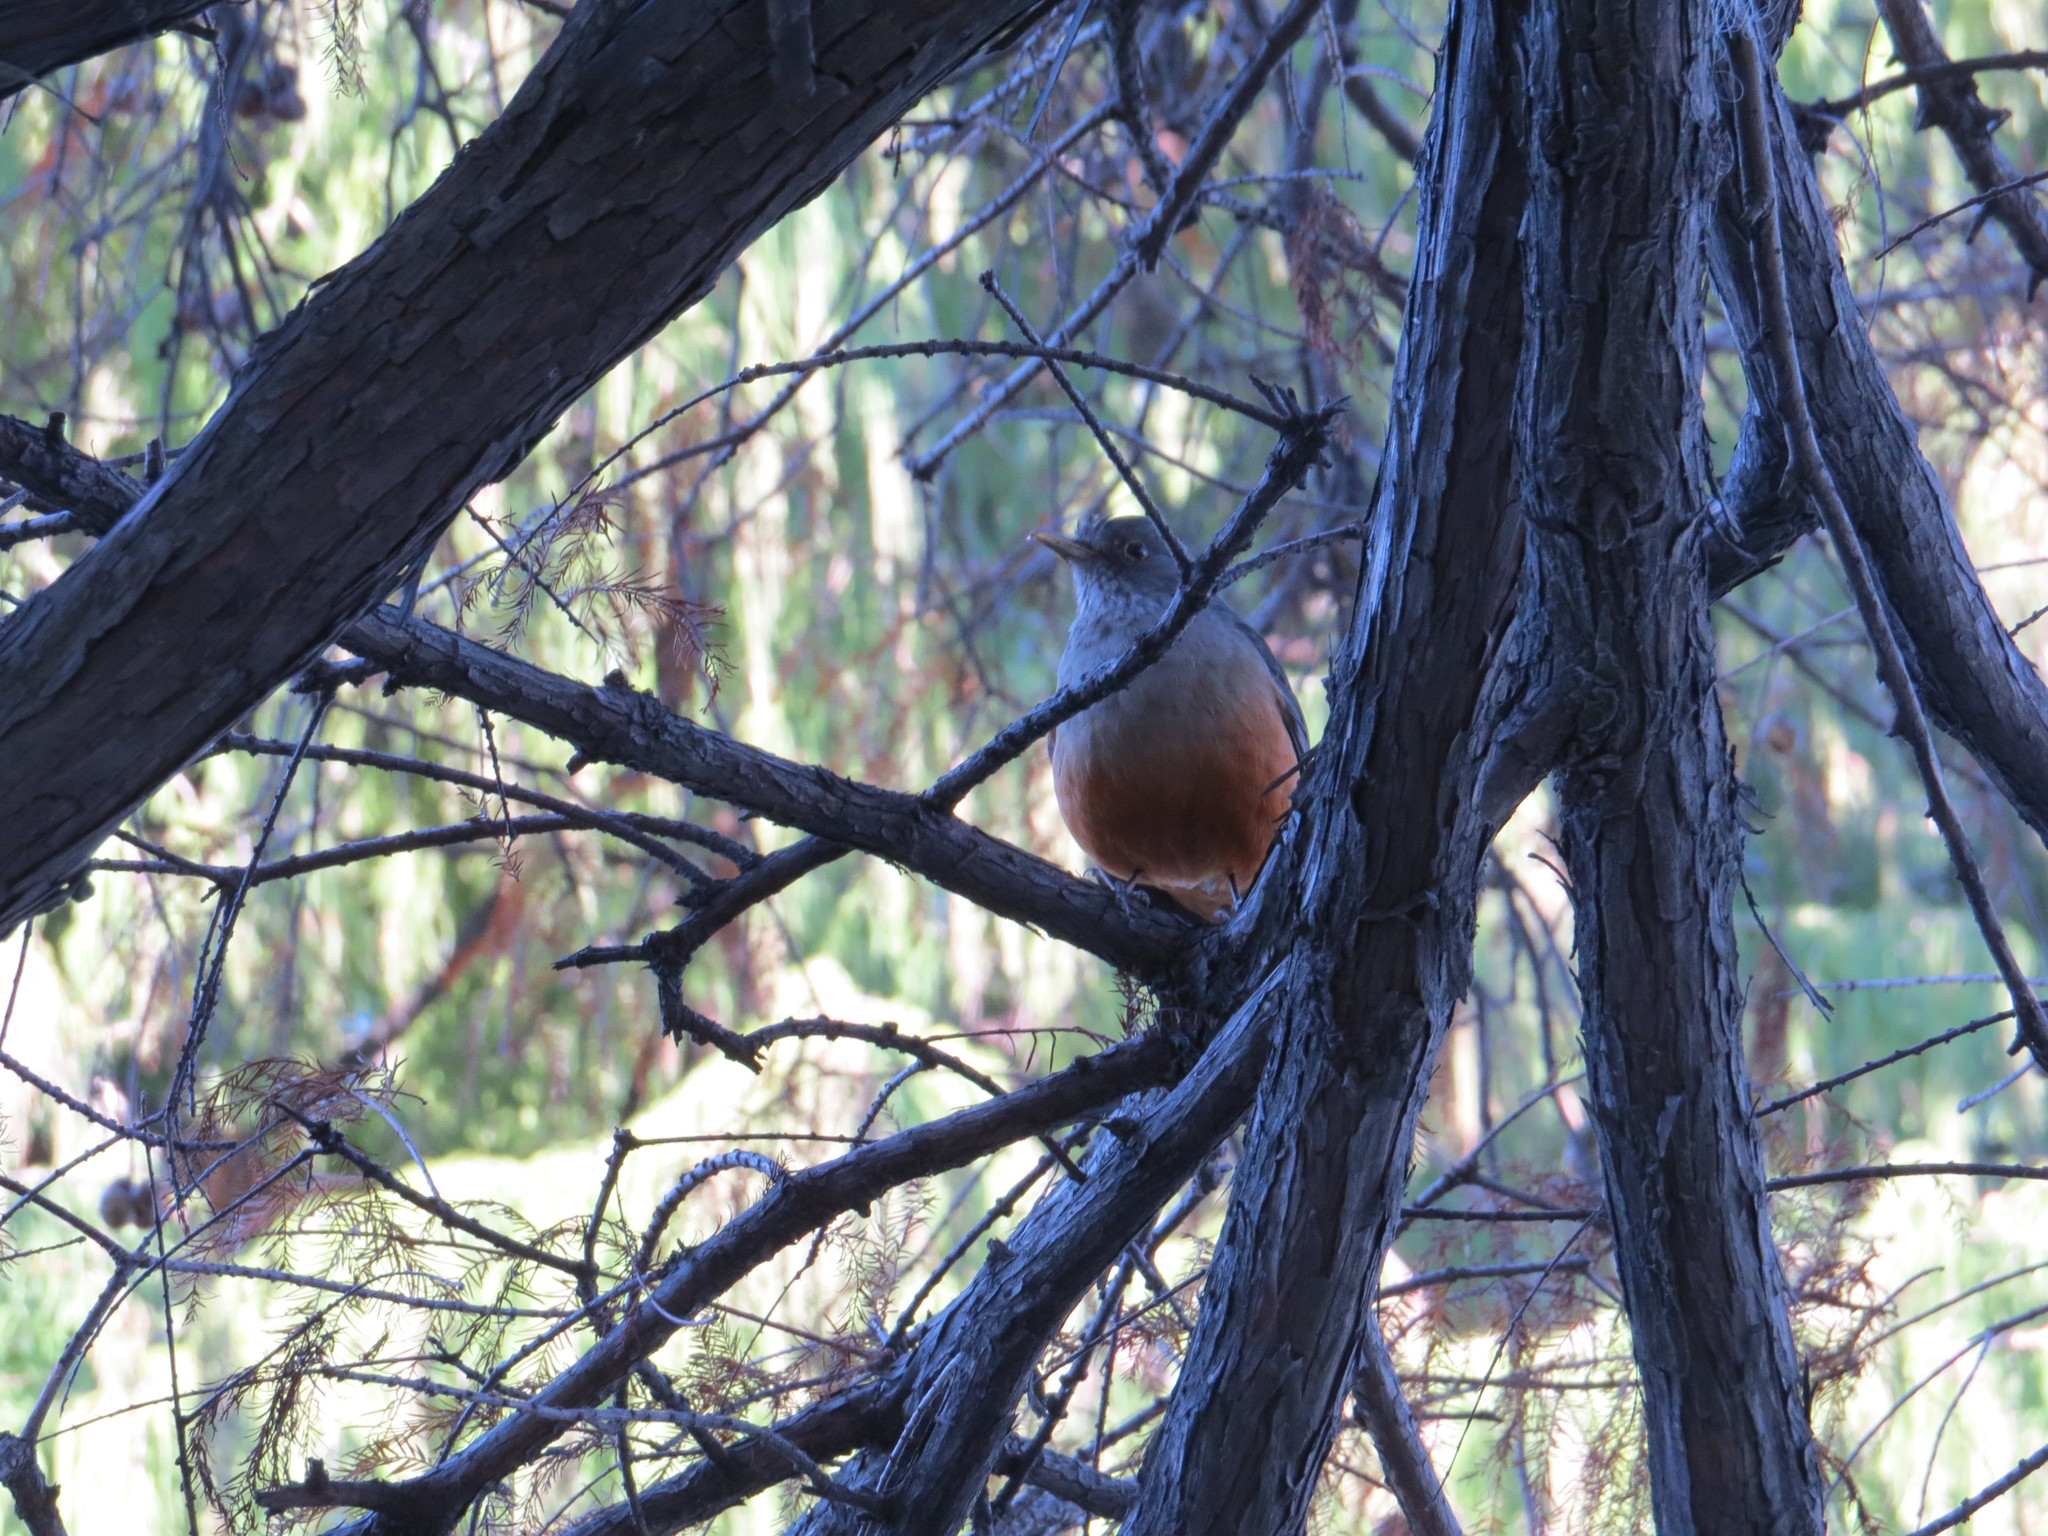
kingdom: Animalia
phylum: Chordata
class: Aves
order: Passeriformes
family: Turdidae
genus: Turdus
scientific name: Turdus rufiventris
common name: Rufous-bellied thrush
